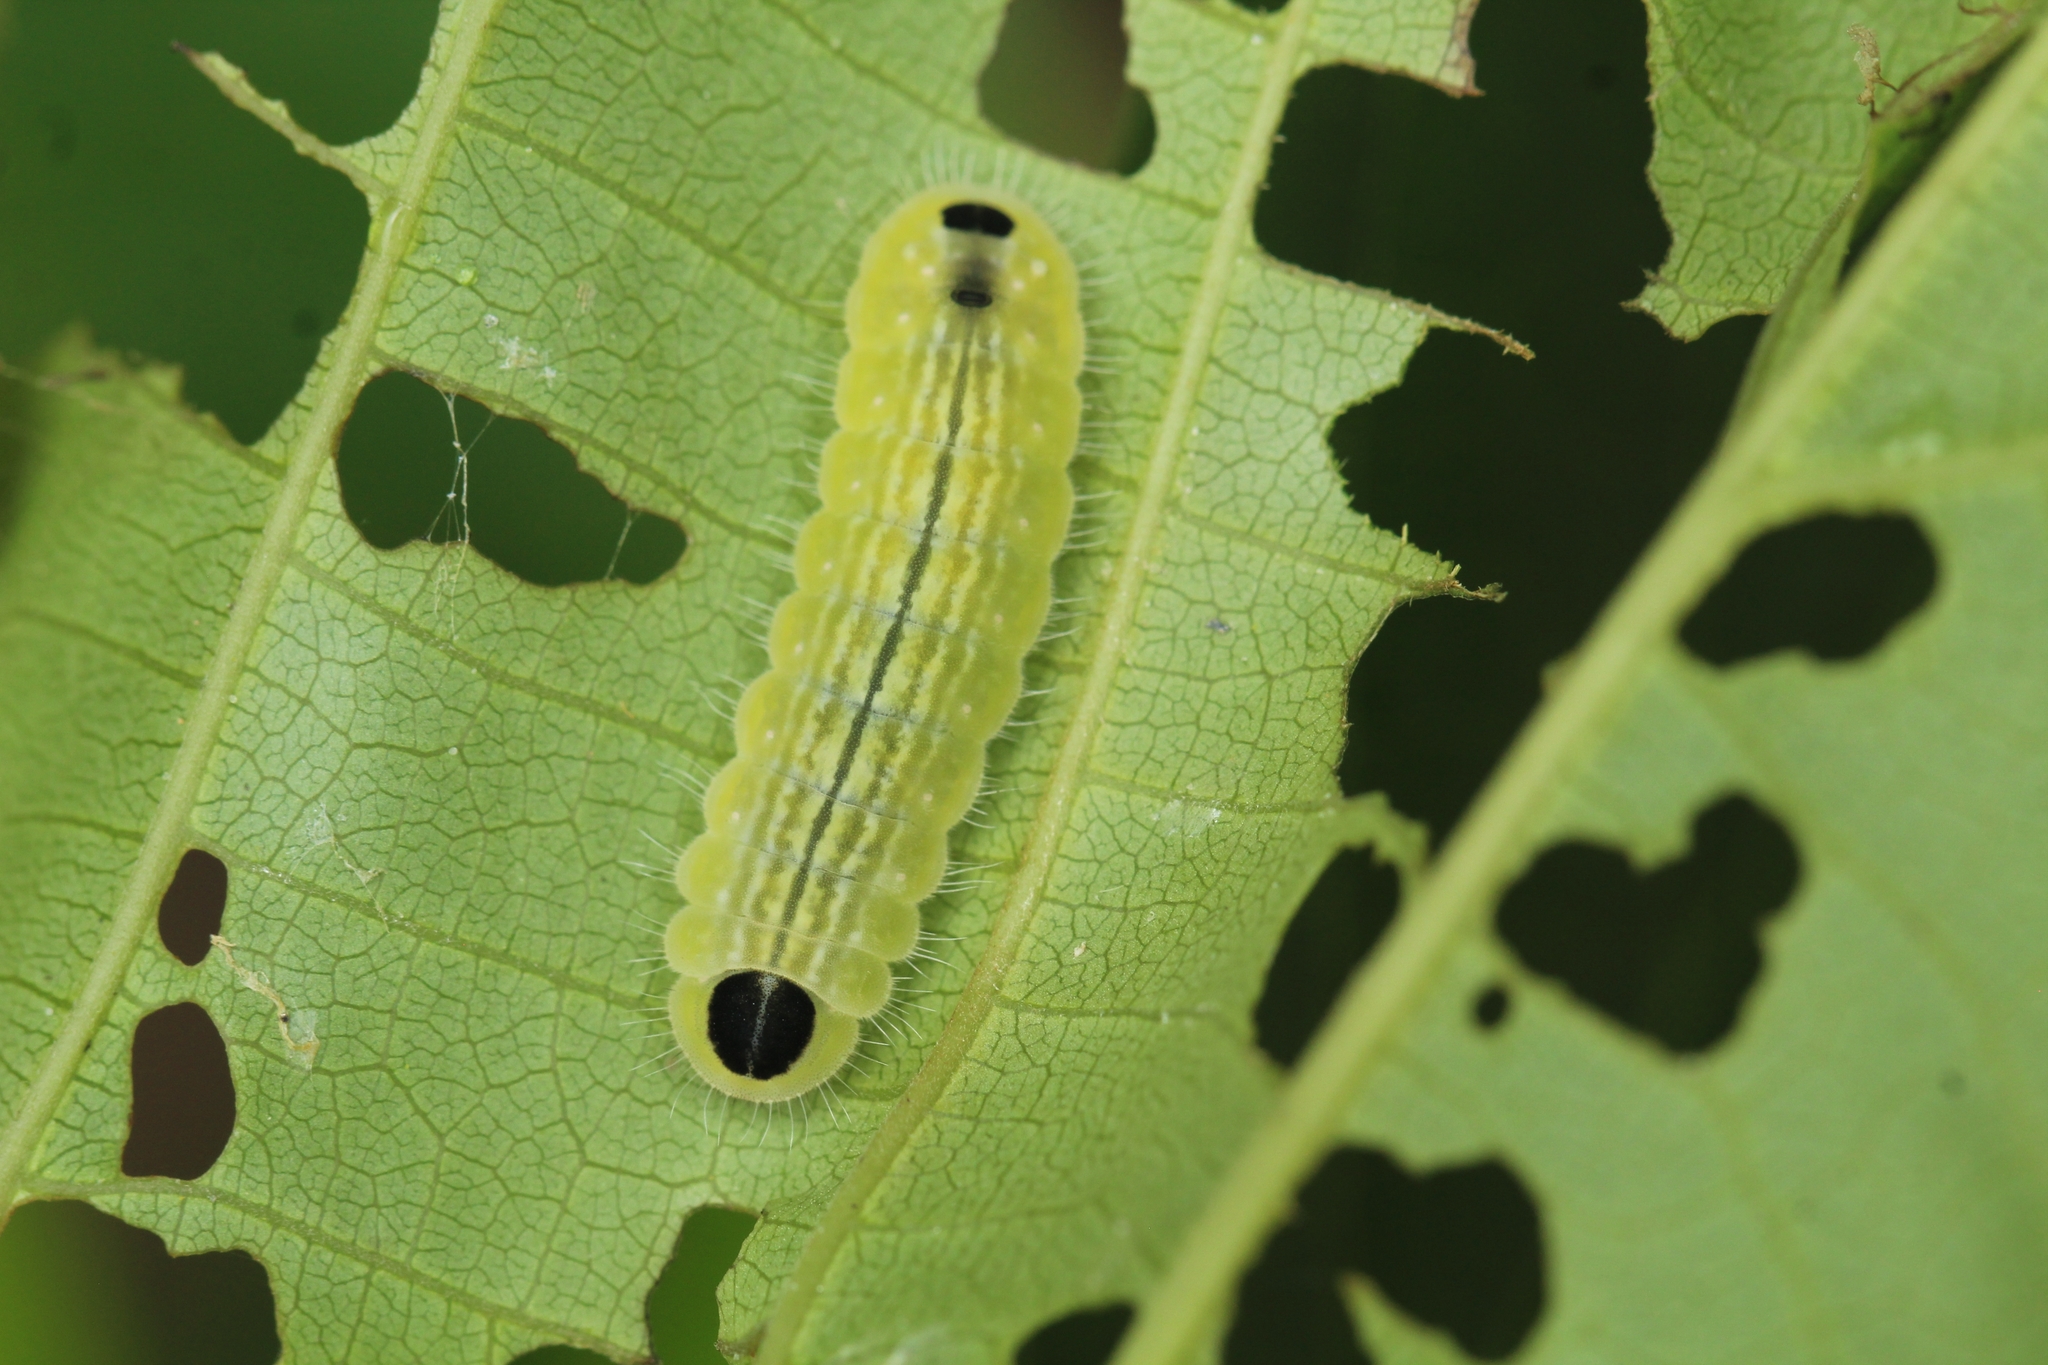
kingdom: Animalia
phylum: Arthropoda
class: Insecta
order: Lepidoptera
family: Lycaenidae
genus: Thaduka
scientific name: Thaduka multicaudata
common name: Many-tailed oakblue
